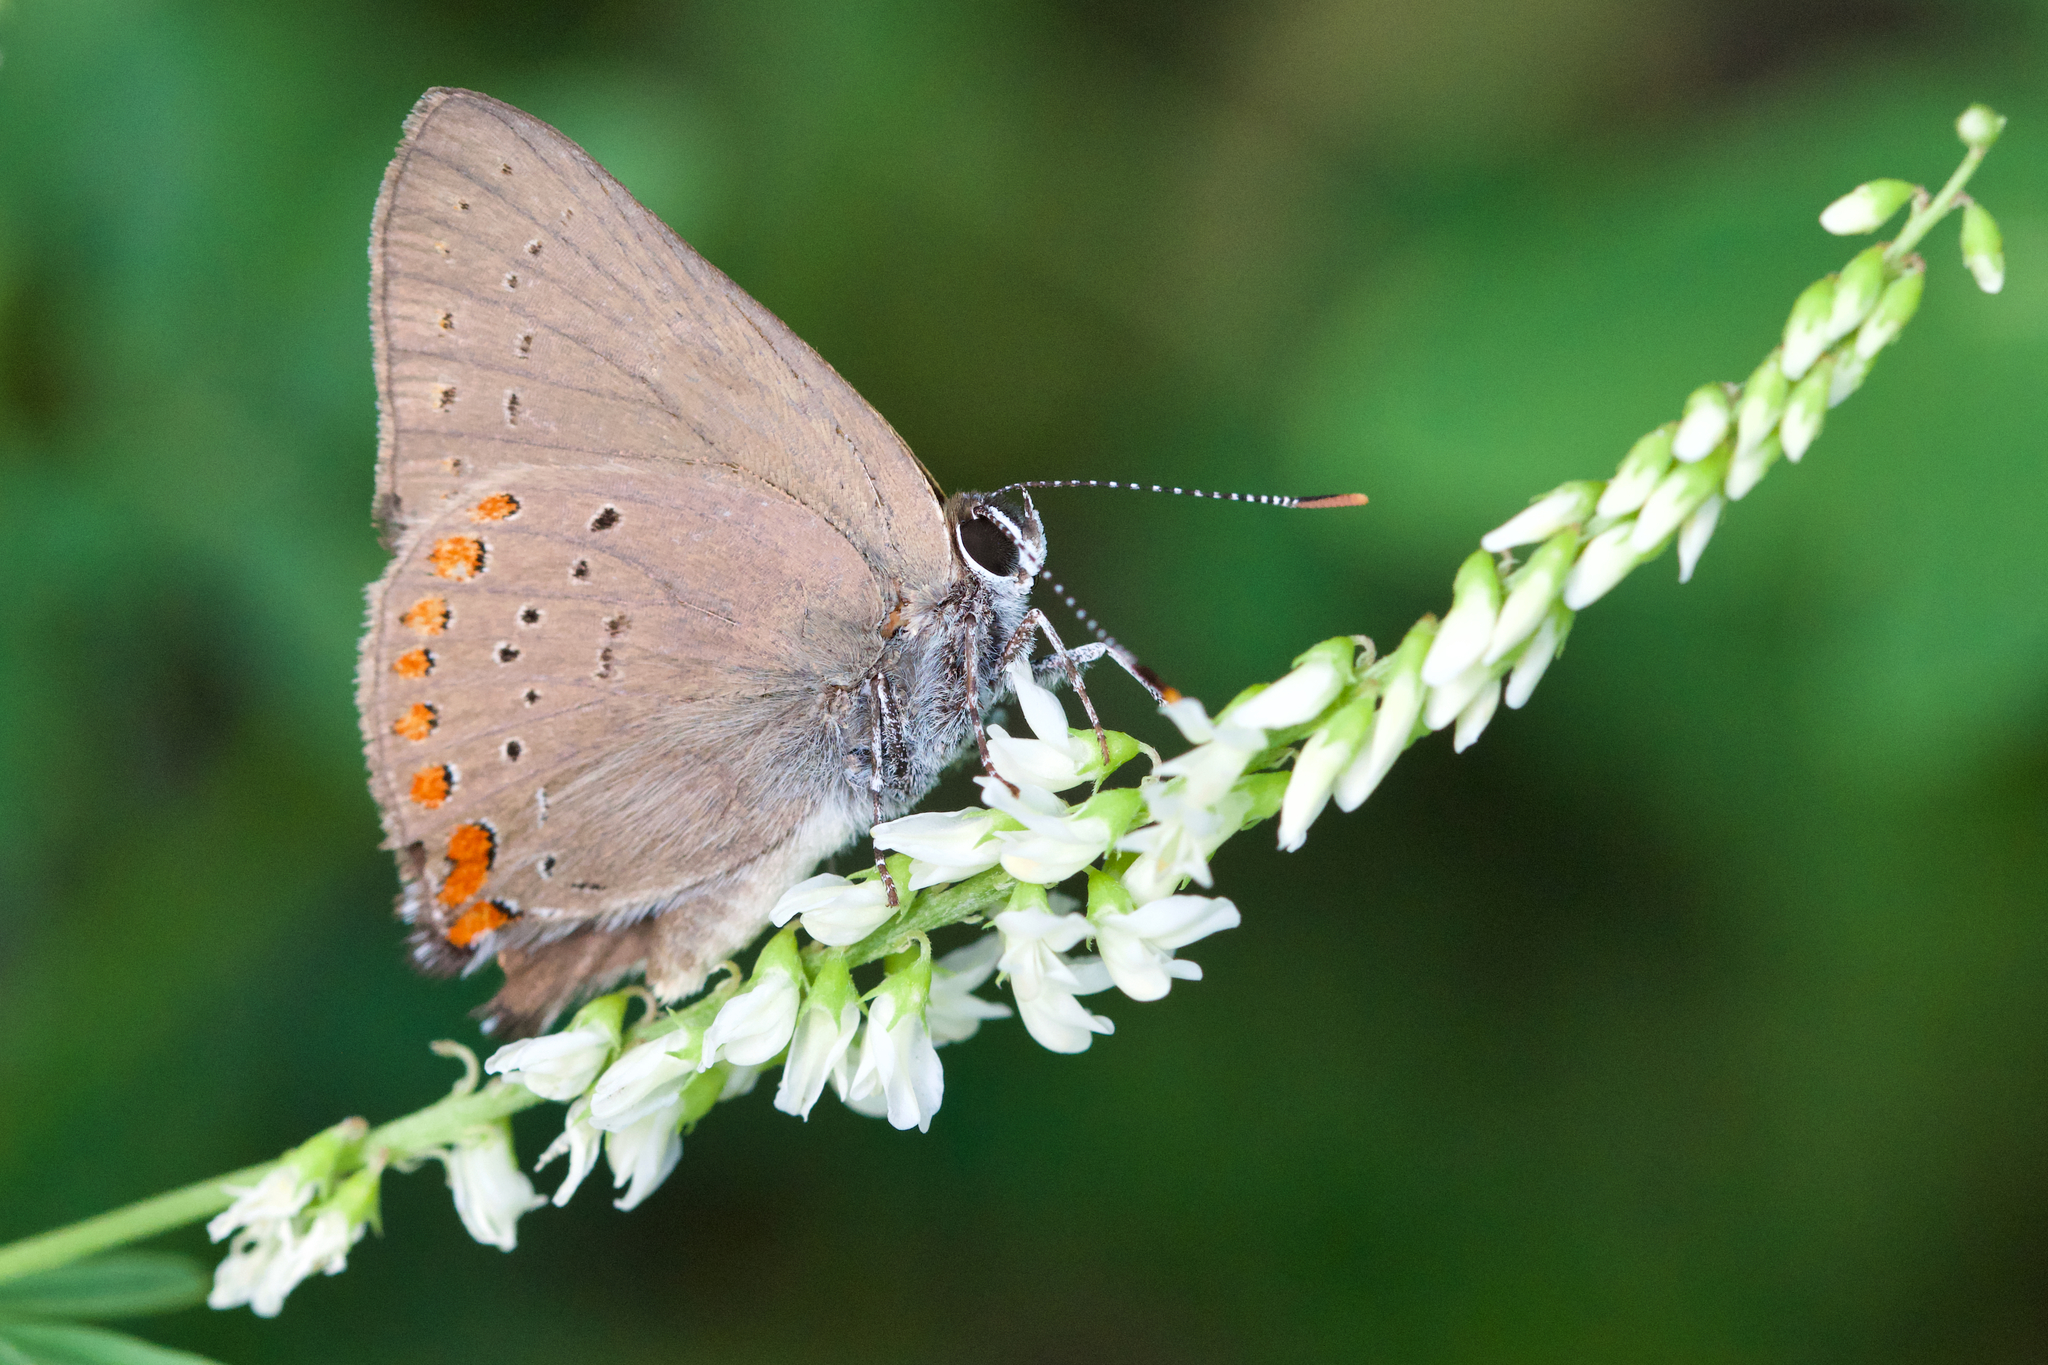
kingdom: Animalia
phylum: Arthropoda
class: Insecta
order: Lepidoptera
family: Lycaenidae
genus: Harkenclenus
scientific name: Harkenclenus titus
